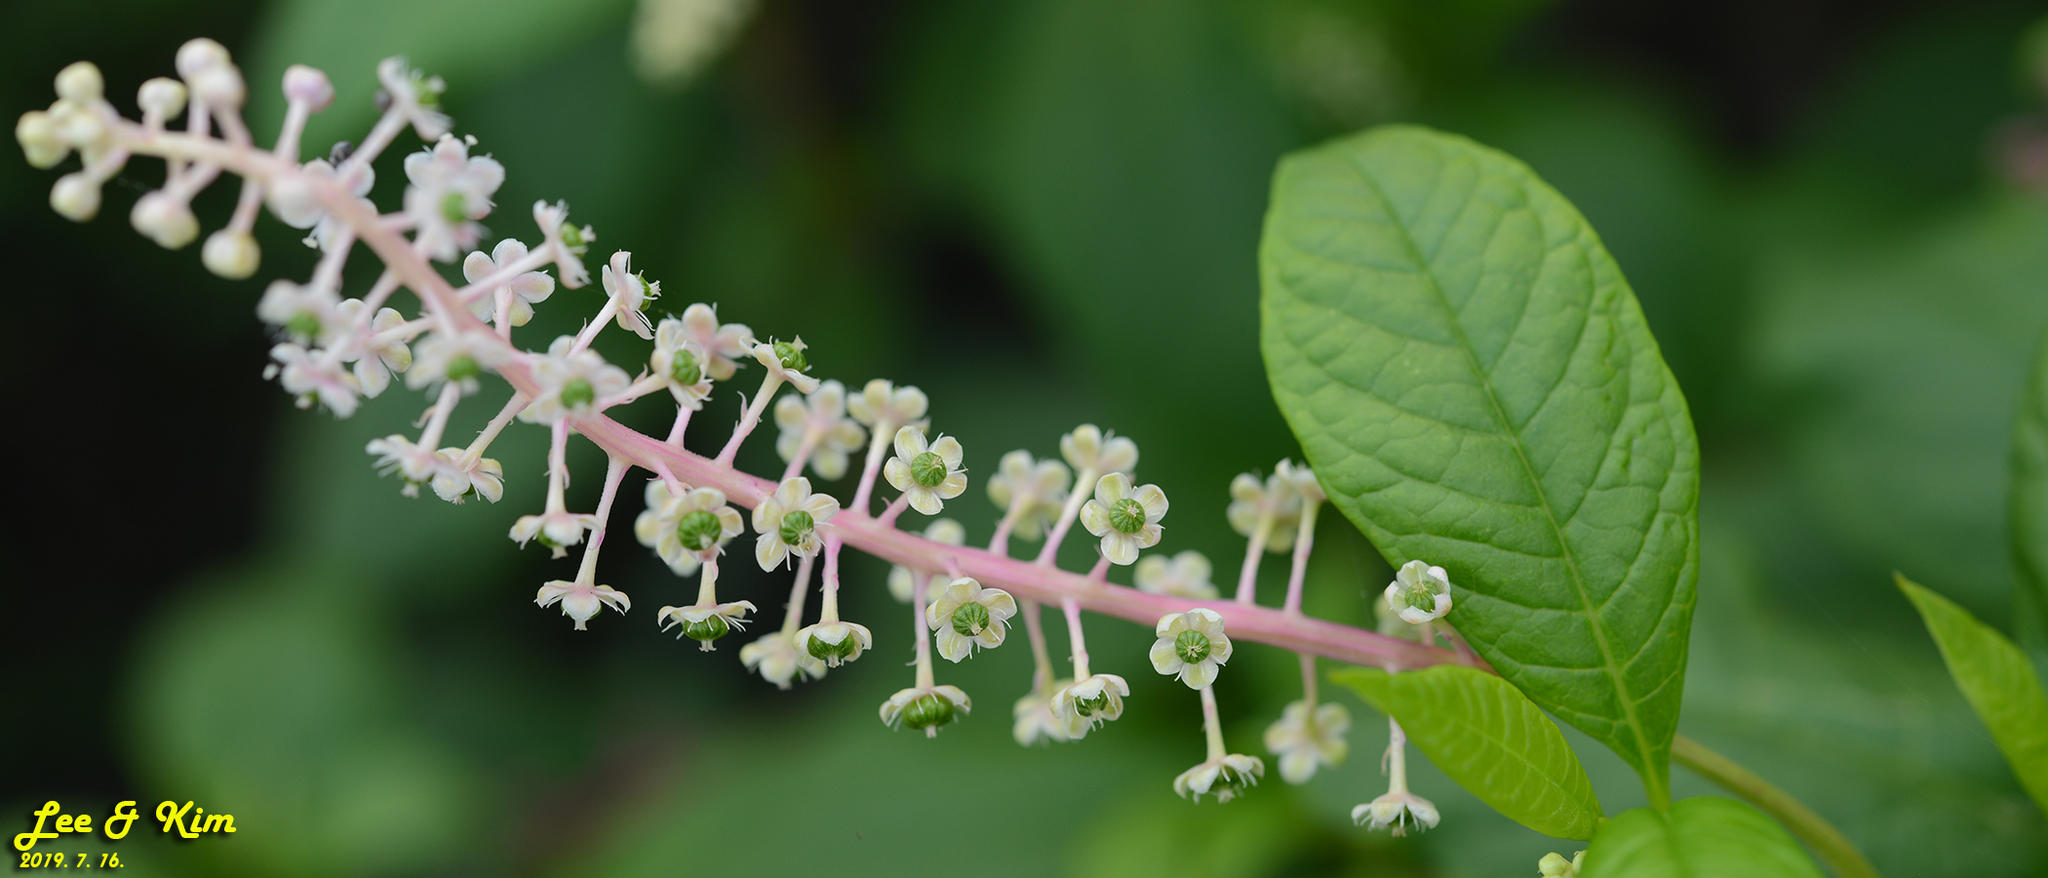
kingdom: Plantae
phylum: Tracheophyta
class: Magnoliopsida
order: Caryophyllales
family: Phytolaccaceae
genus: Phytolacca
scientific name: Phytolacca americana
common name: American pokeweed
